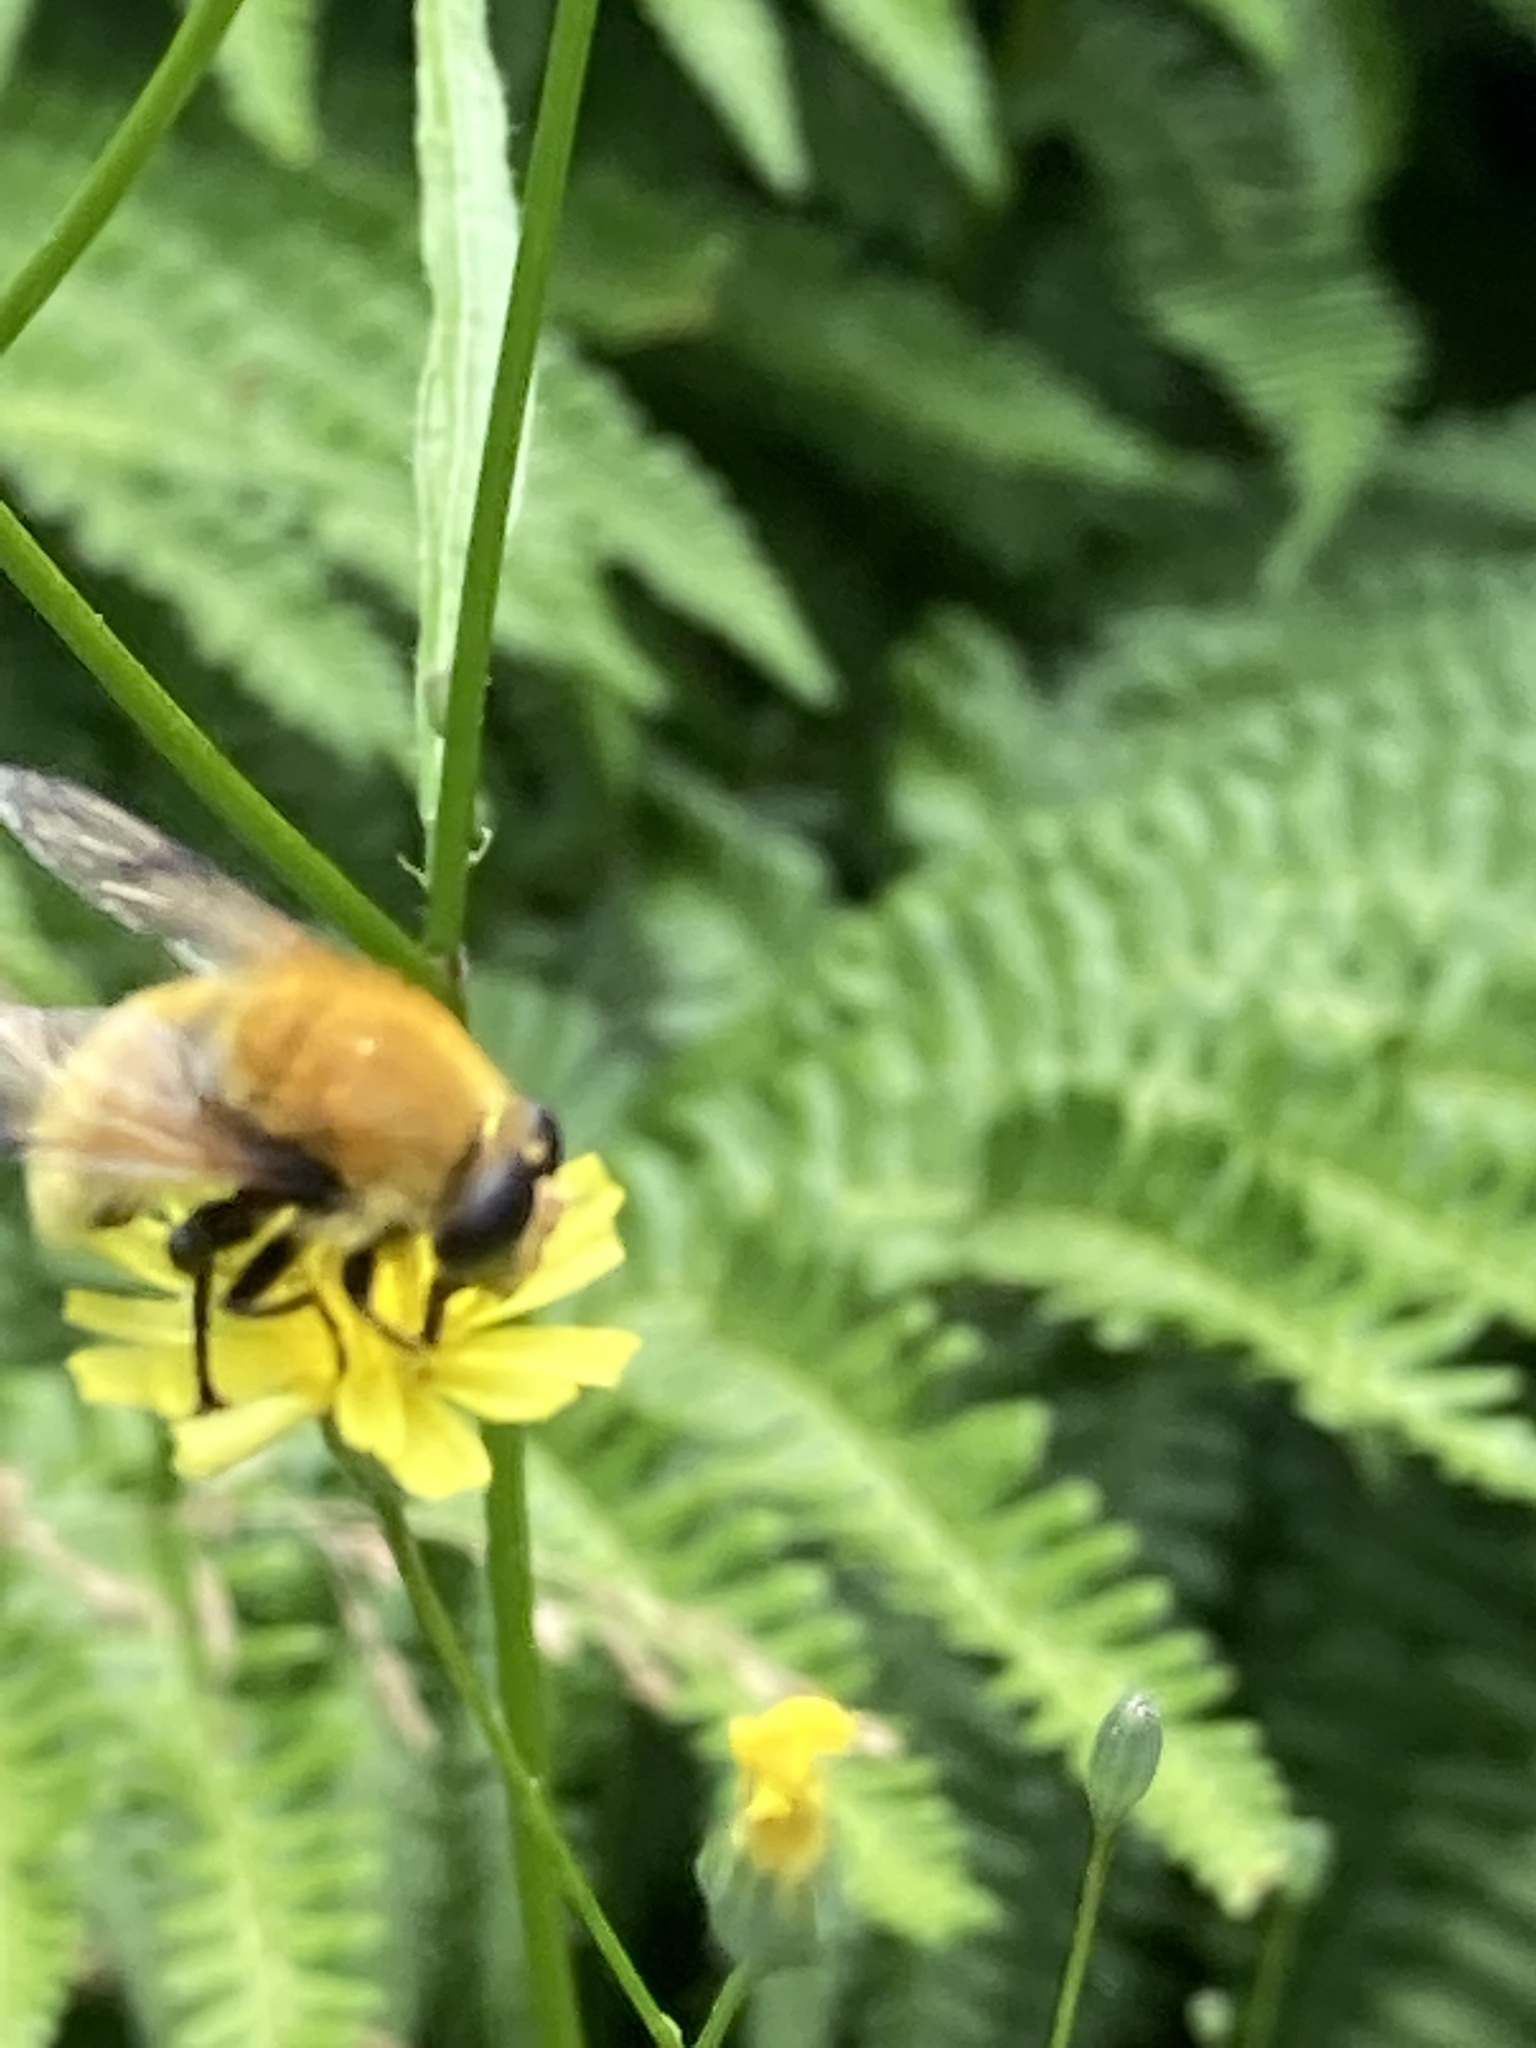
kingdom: Animalia
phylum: Arthropoda
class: Insecta
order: Diptera
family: Syrphidae
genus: Sericomyia
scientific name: Sericomyia superbiens
